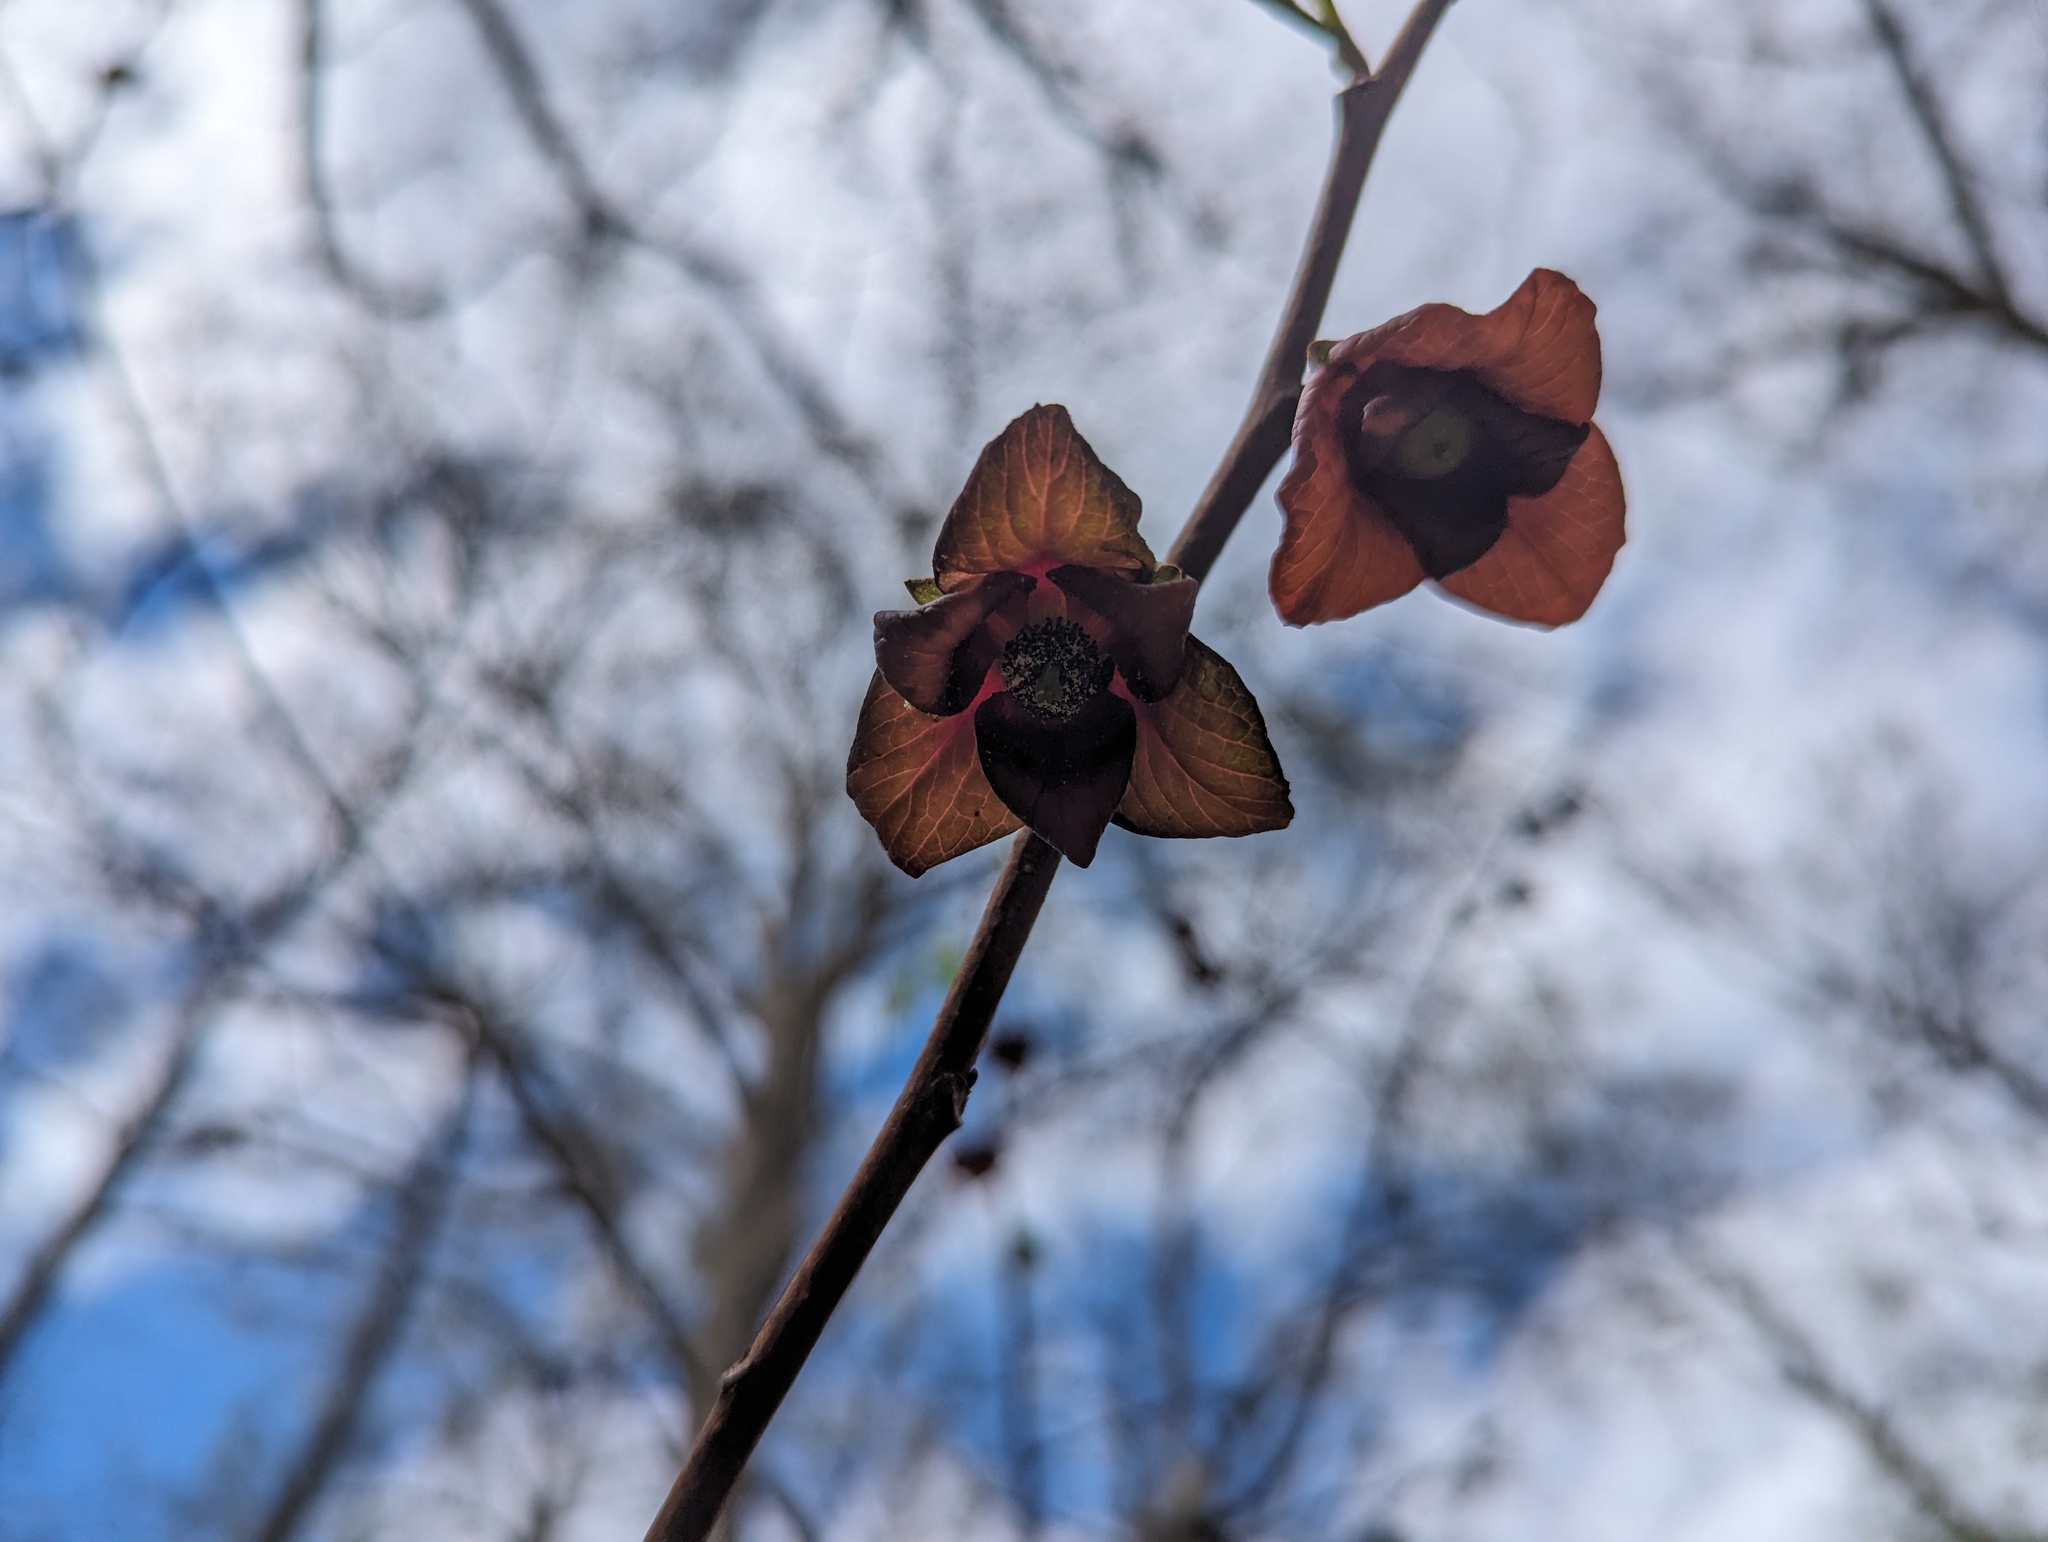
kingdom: Plantae
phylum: Tracheophyta
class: Magnoliopsida
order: Magnoliales
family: Annonaceae
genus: Asimina
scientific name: Asimina triloba
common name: Dog-banana
